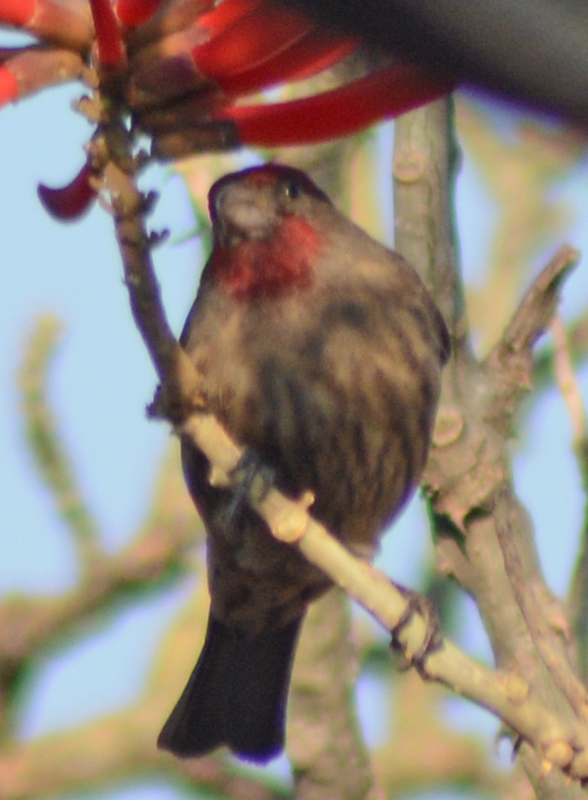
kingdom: Animalia
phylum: Chordata
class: Aves
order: Passeriformes
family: Fringillidae
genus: Haemorhous
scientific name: Haemorhous mexicanus
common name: House finch
